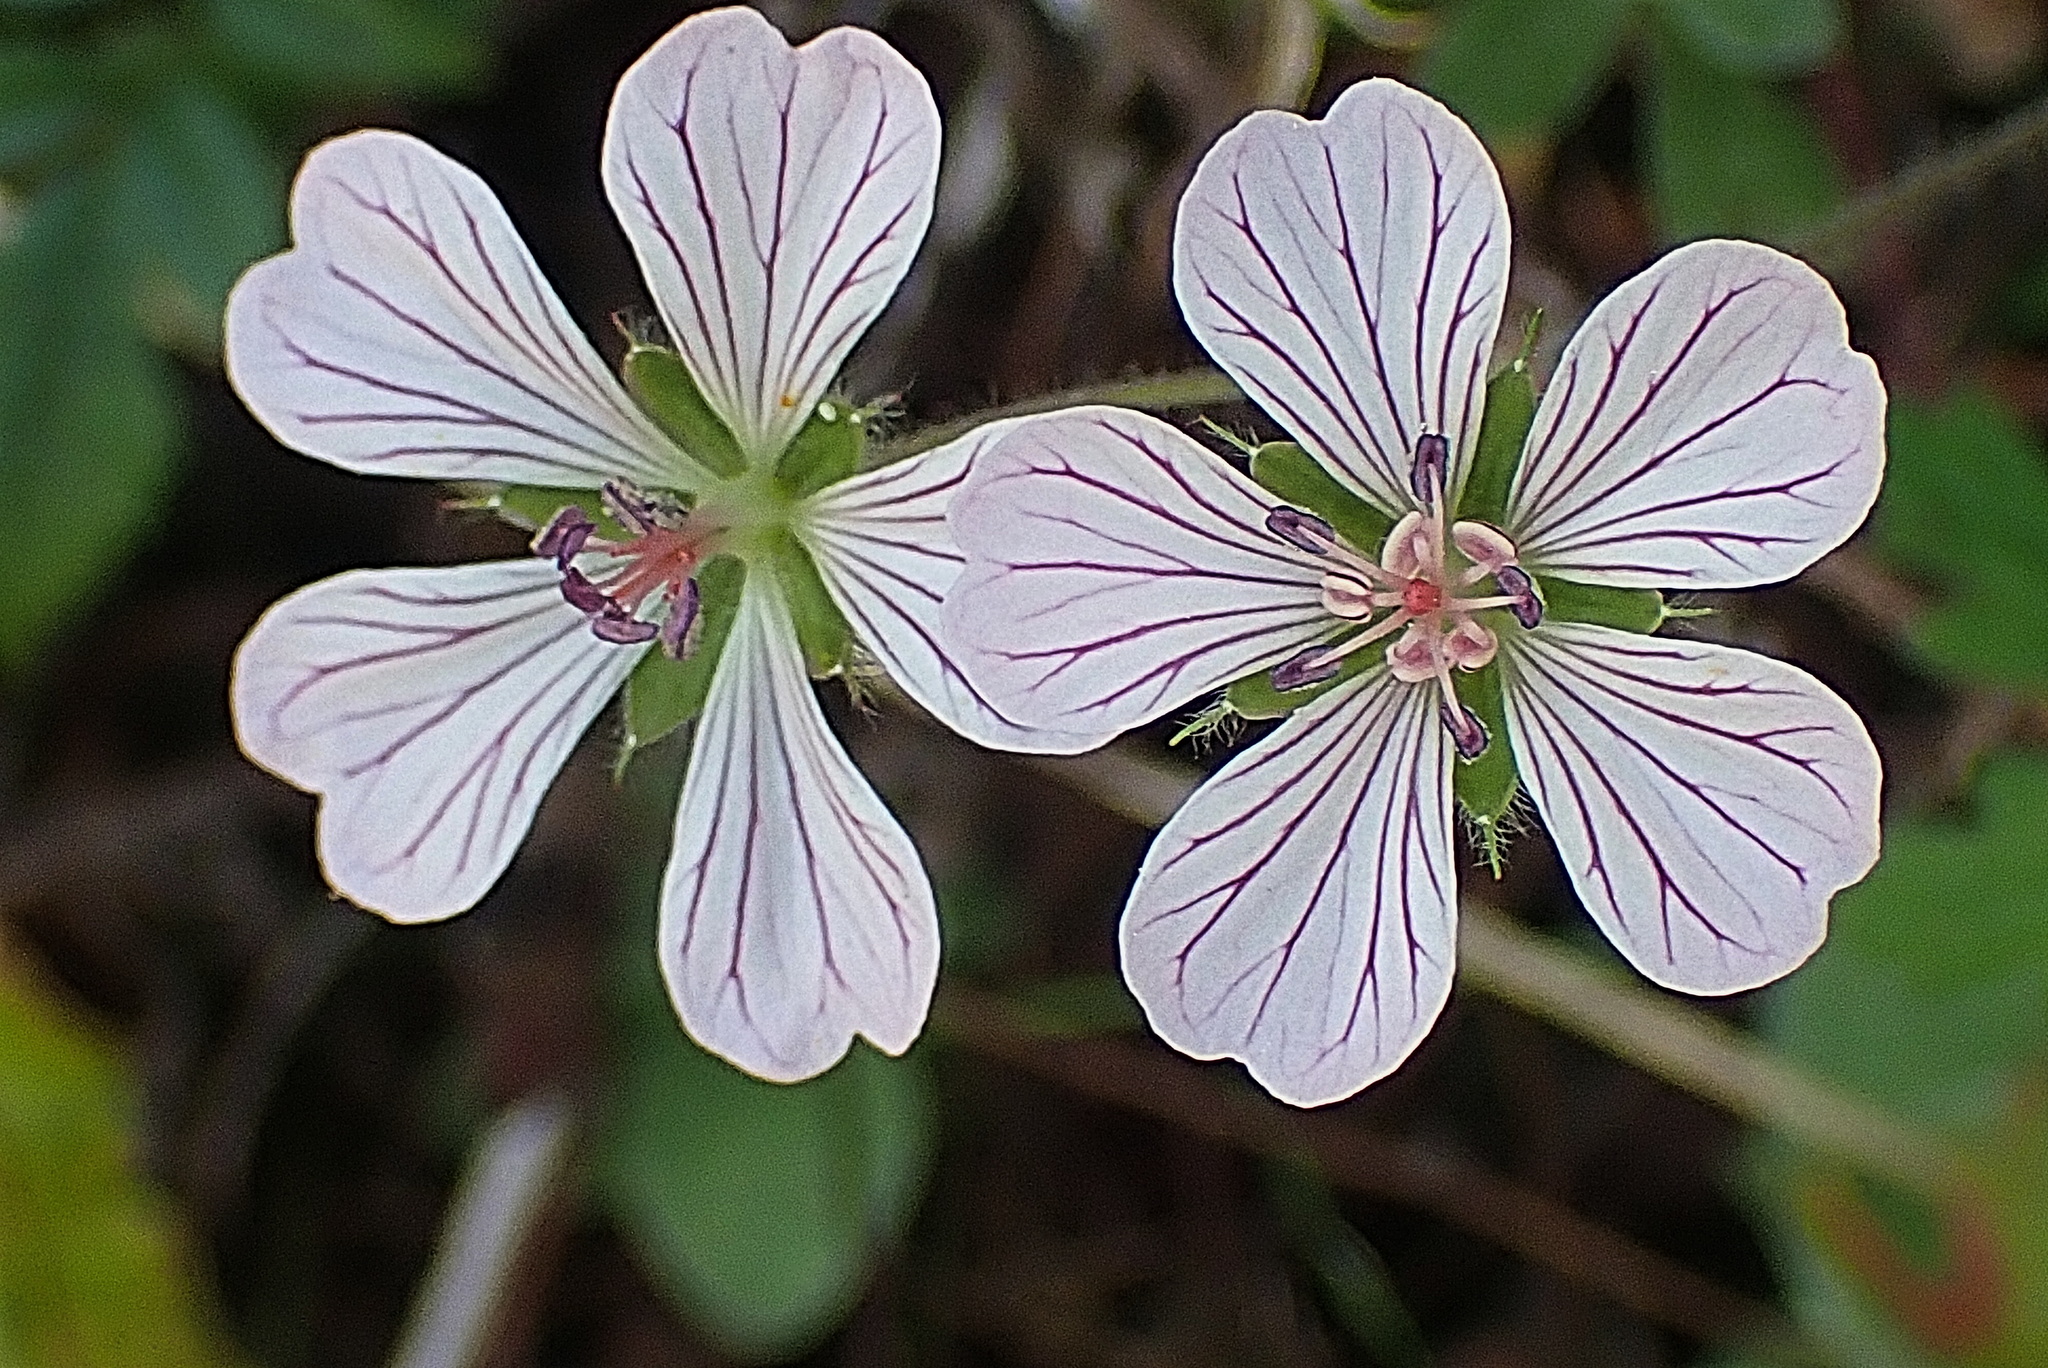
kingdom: Plantae
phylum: Tracheophyta
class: Magnoliopsida
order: Geraniales
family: Geraniaceae
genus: Geranium
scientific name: Geranium ornithopodon
